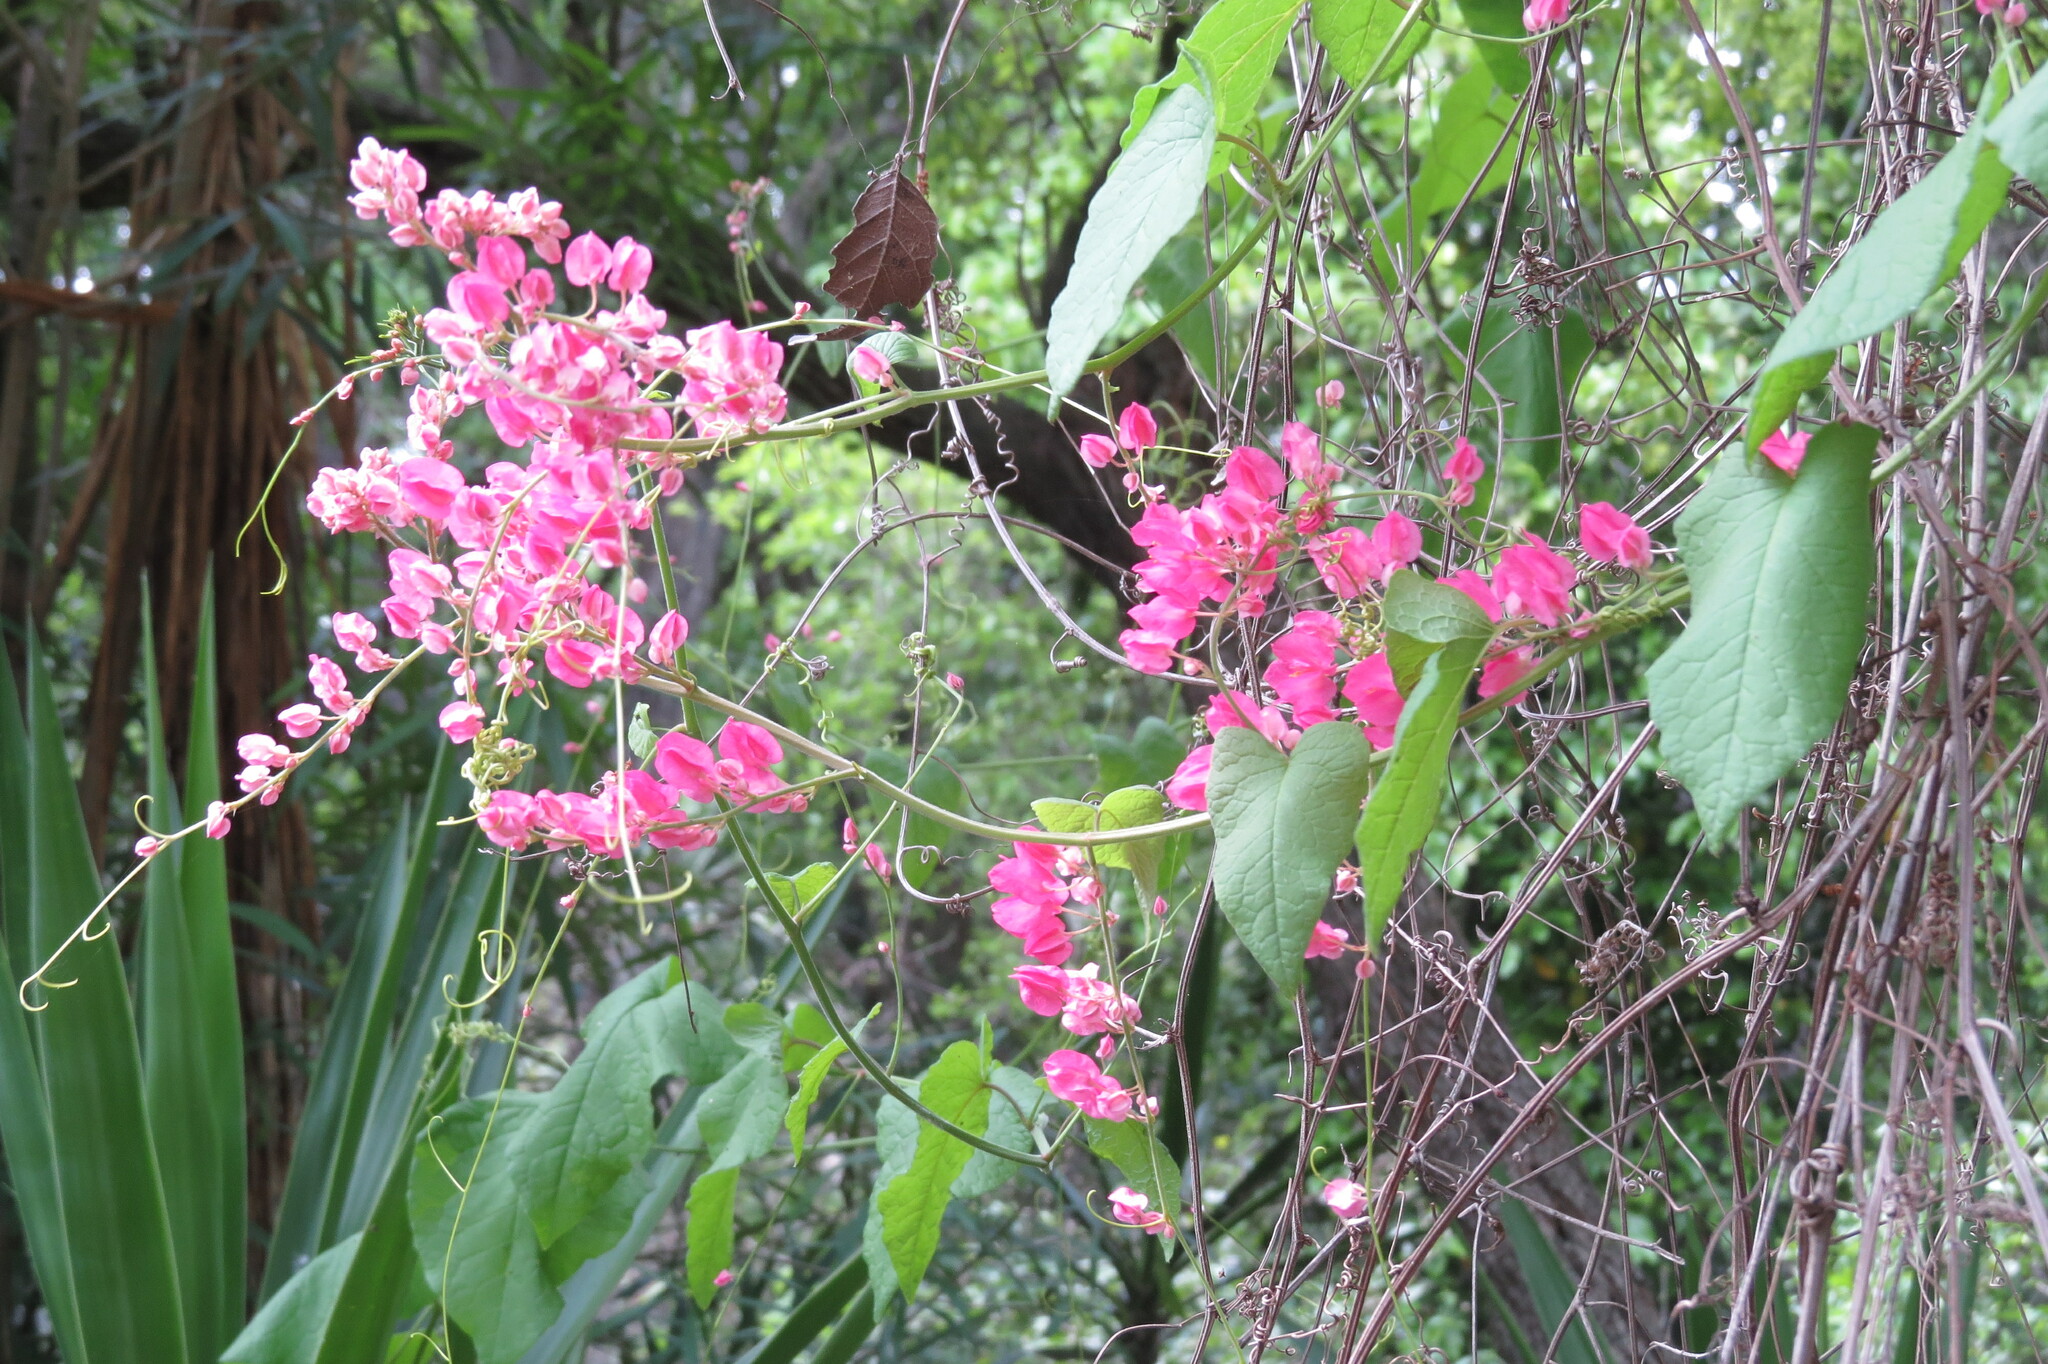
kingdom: Plantae
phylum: Tracheophyta
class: Magnoliopsida
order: Caryophyllales
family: Polygonaceae
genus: Antigonon
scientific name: Antigonon leptopus
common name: Coral vine
